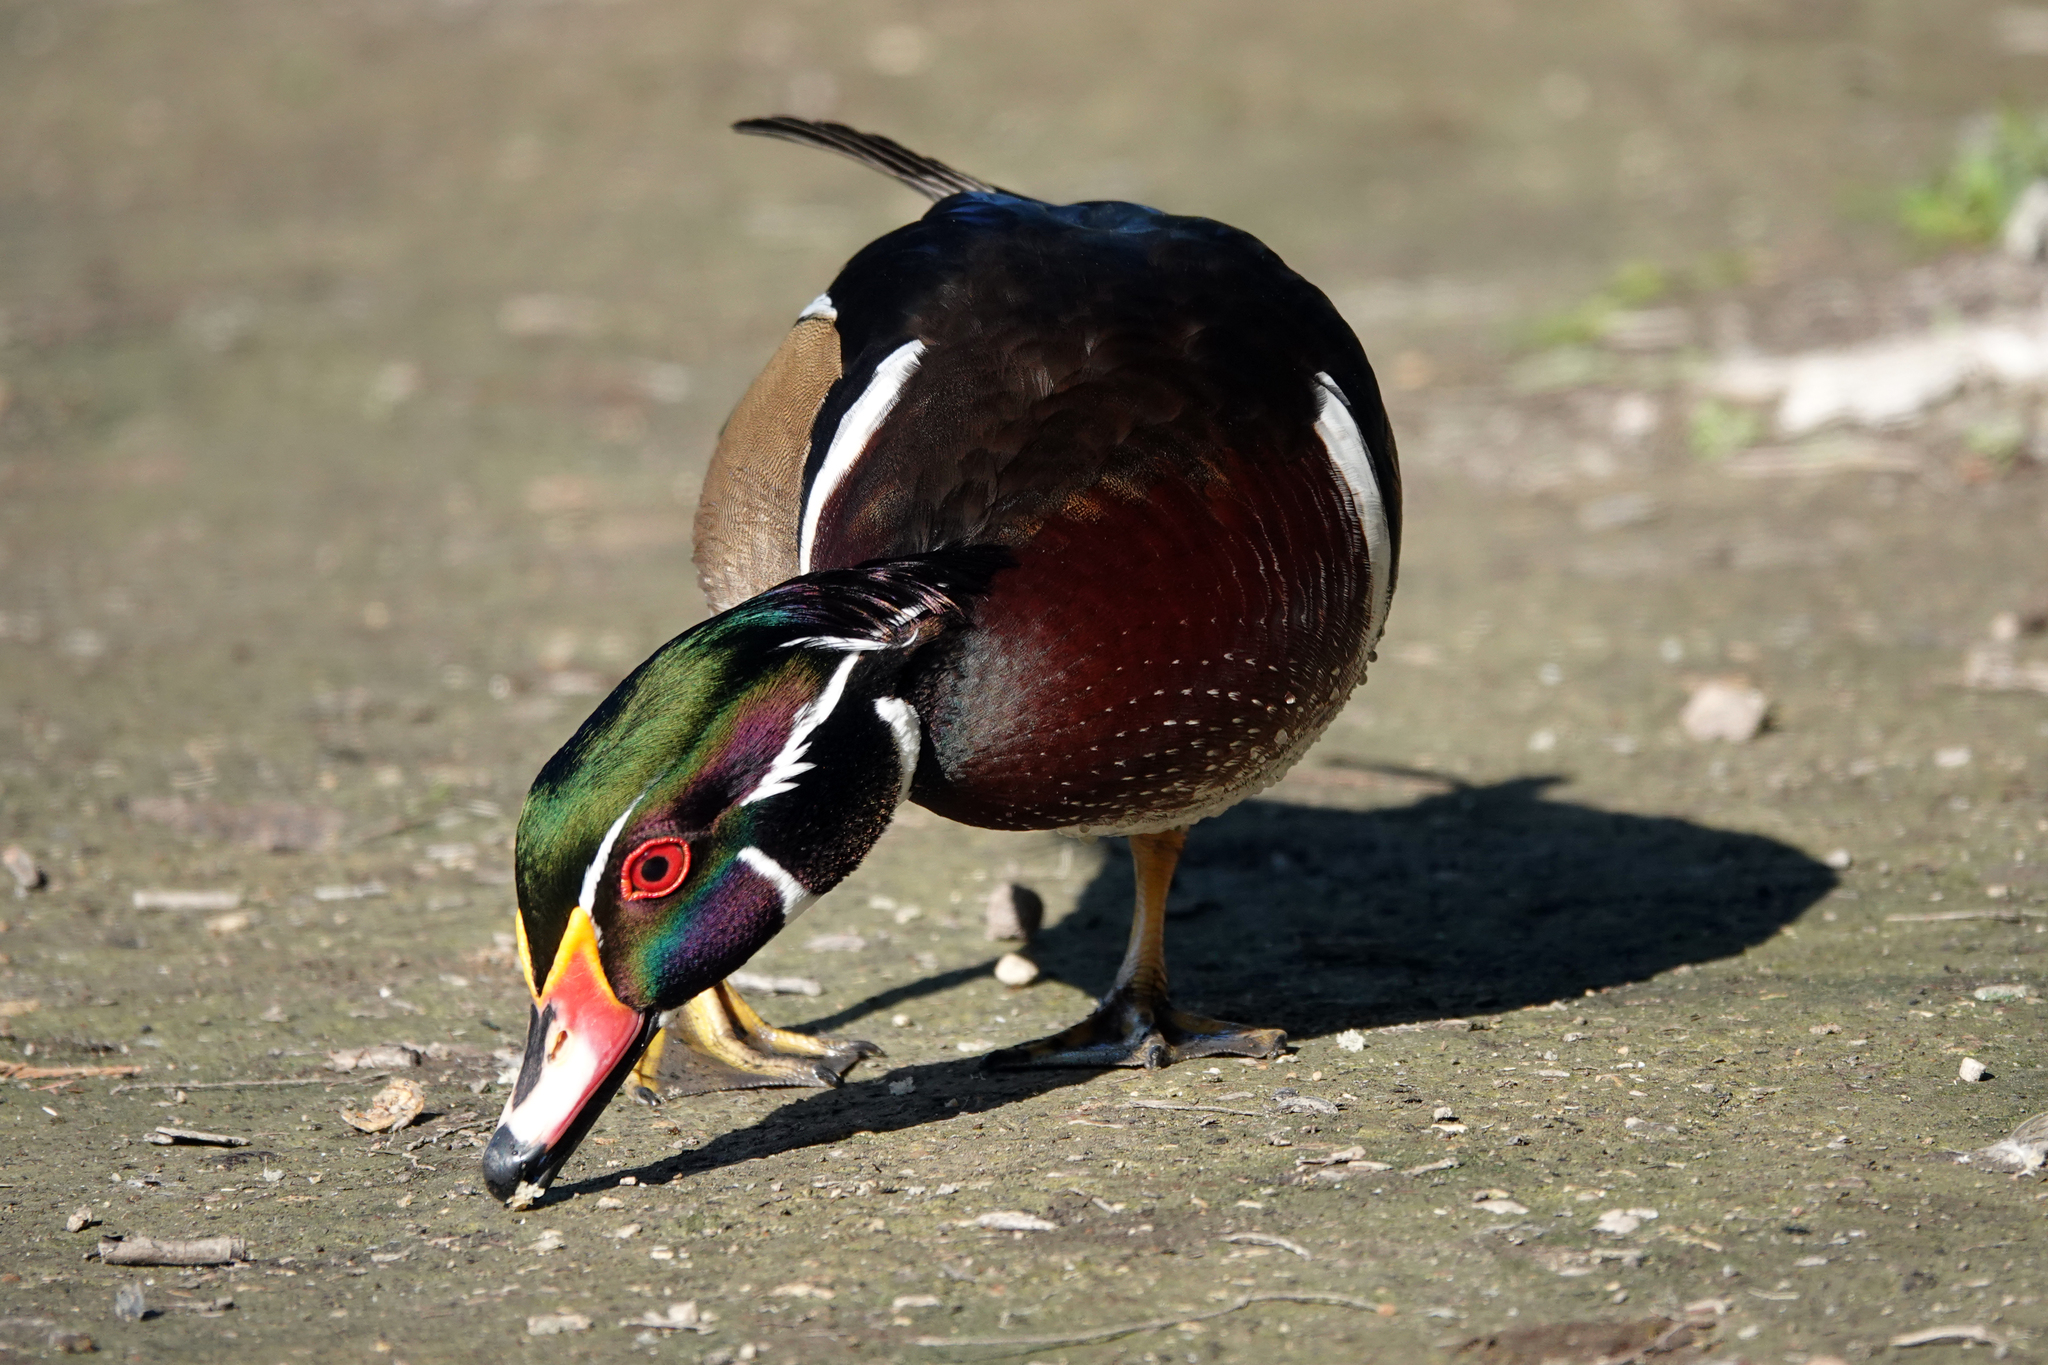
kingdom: Animalia
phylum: Chordata
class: Aves
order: Anseriformes
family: Anatidae
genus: Aix
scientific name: Aix sponsa
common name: Wood duck
